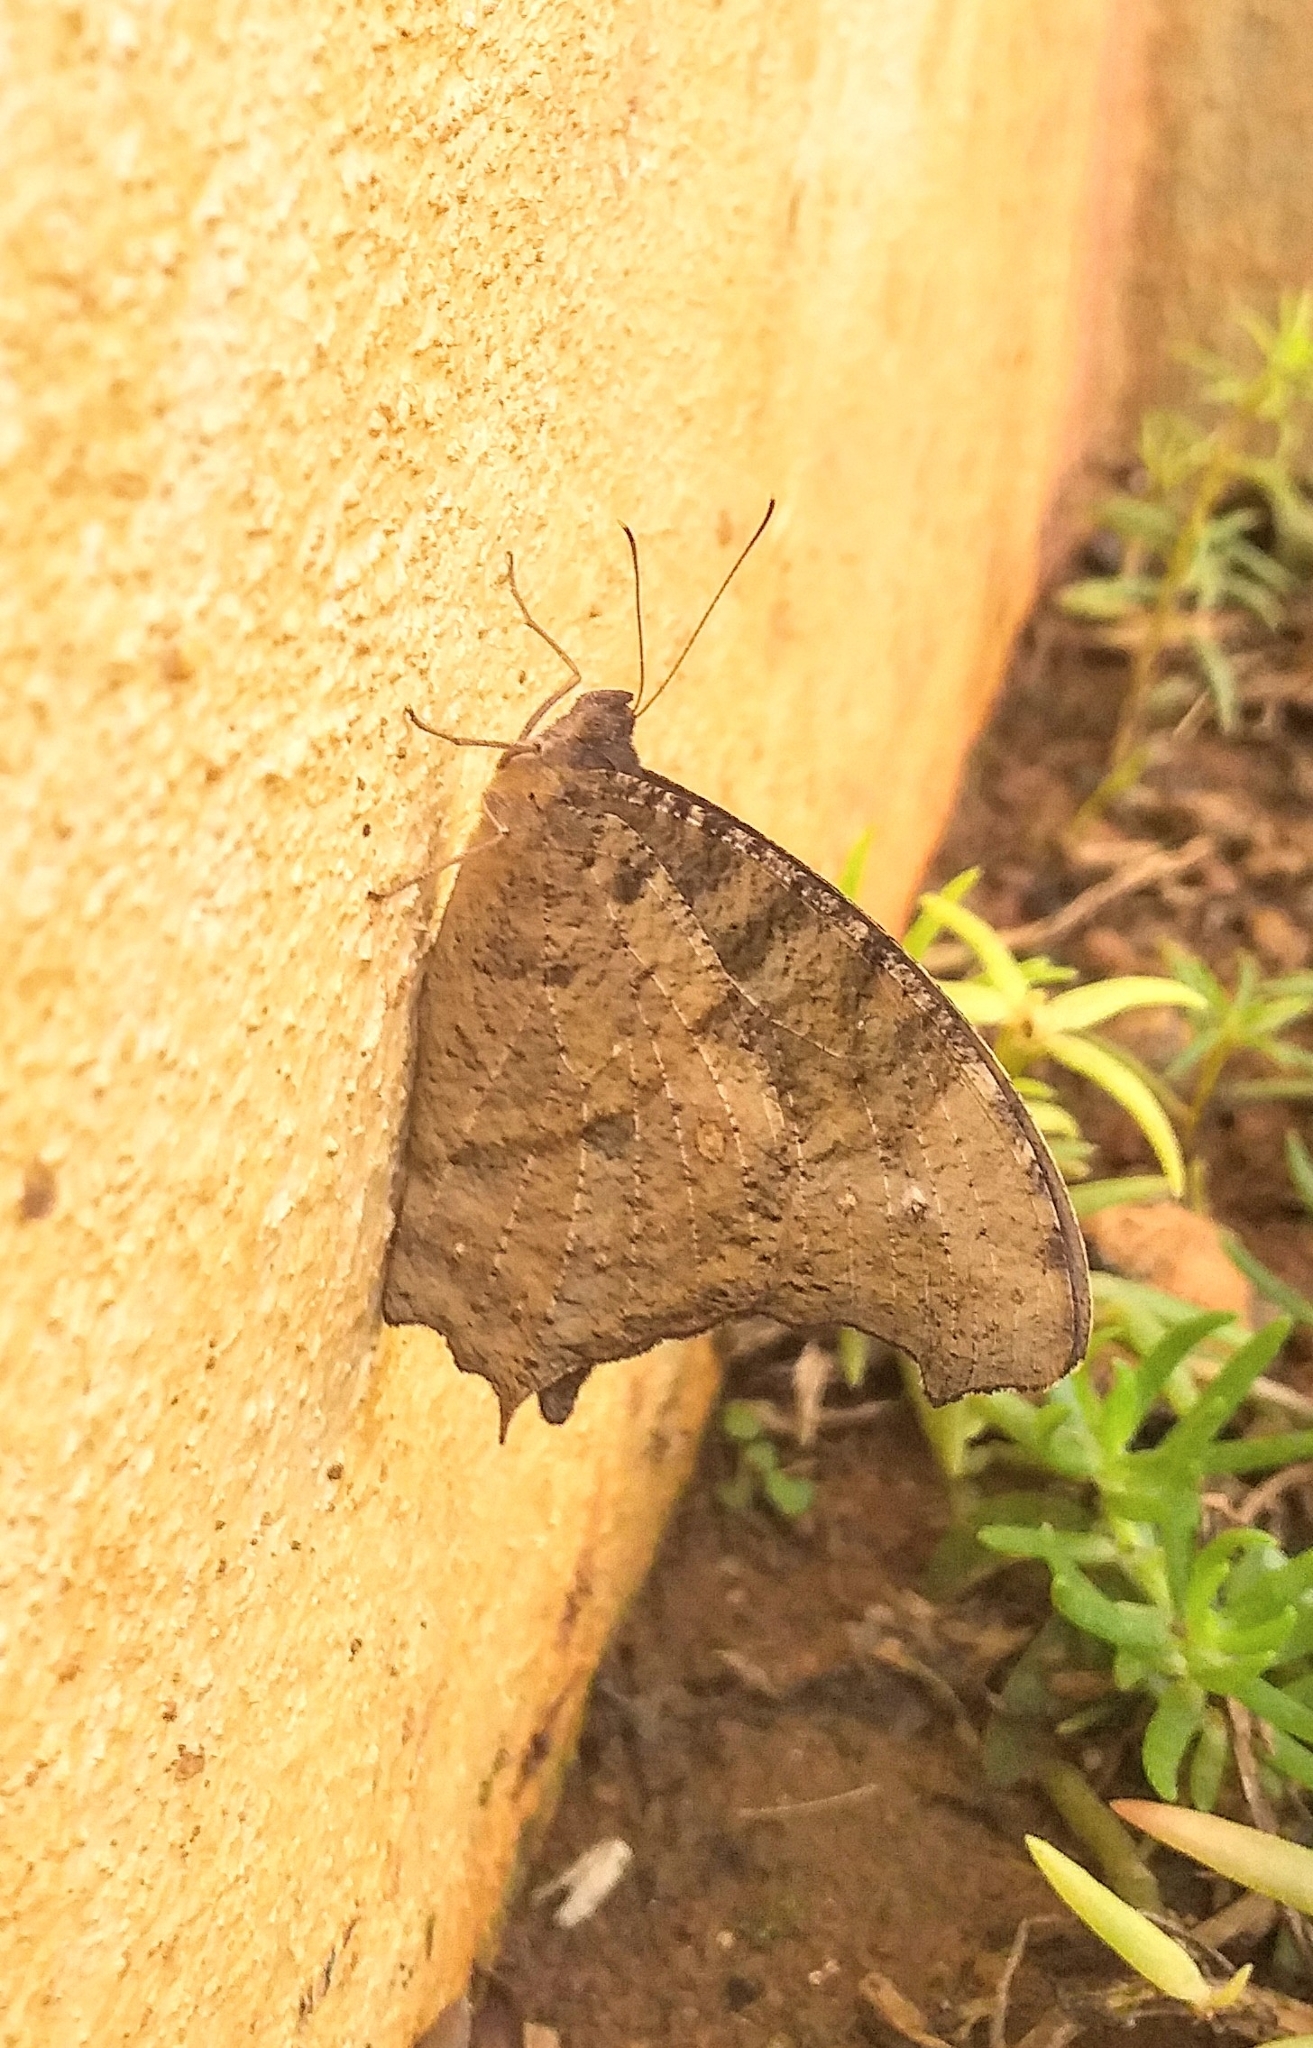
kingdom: Animalia
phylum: Arthropoda
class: Insecta
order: Lepidoptera
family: Nymphalidae
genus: Melanitis
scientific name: Melanitis leda
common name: Twilight brown
